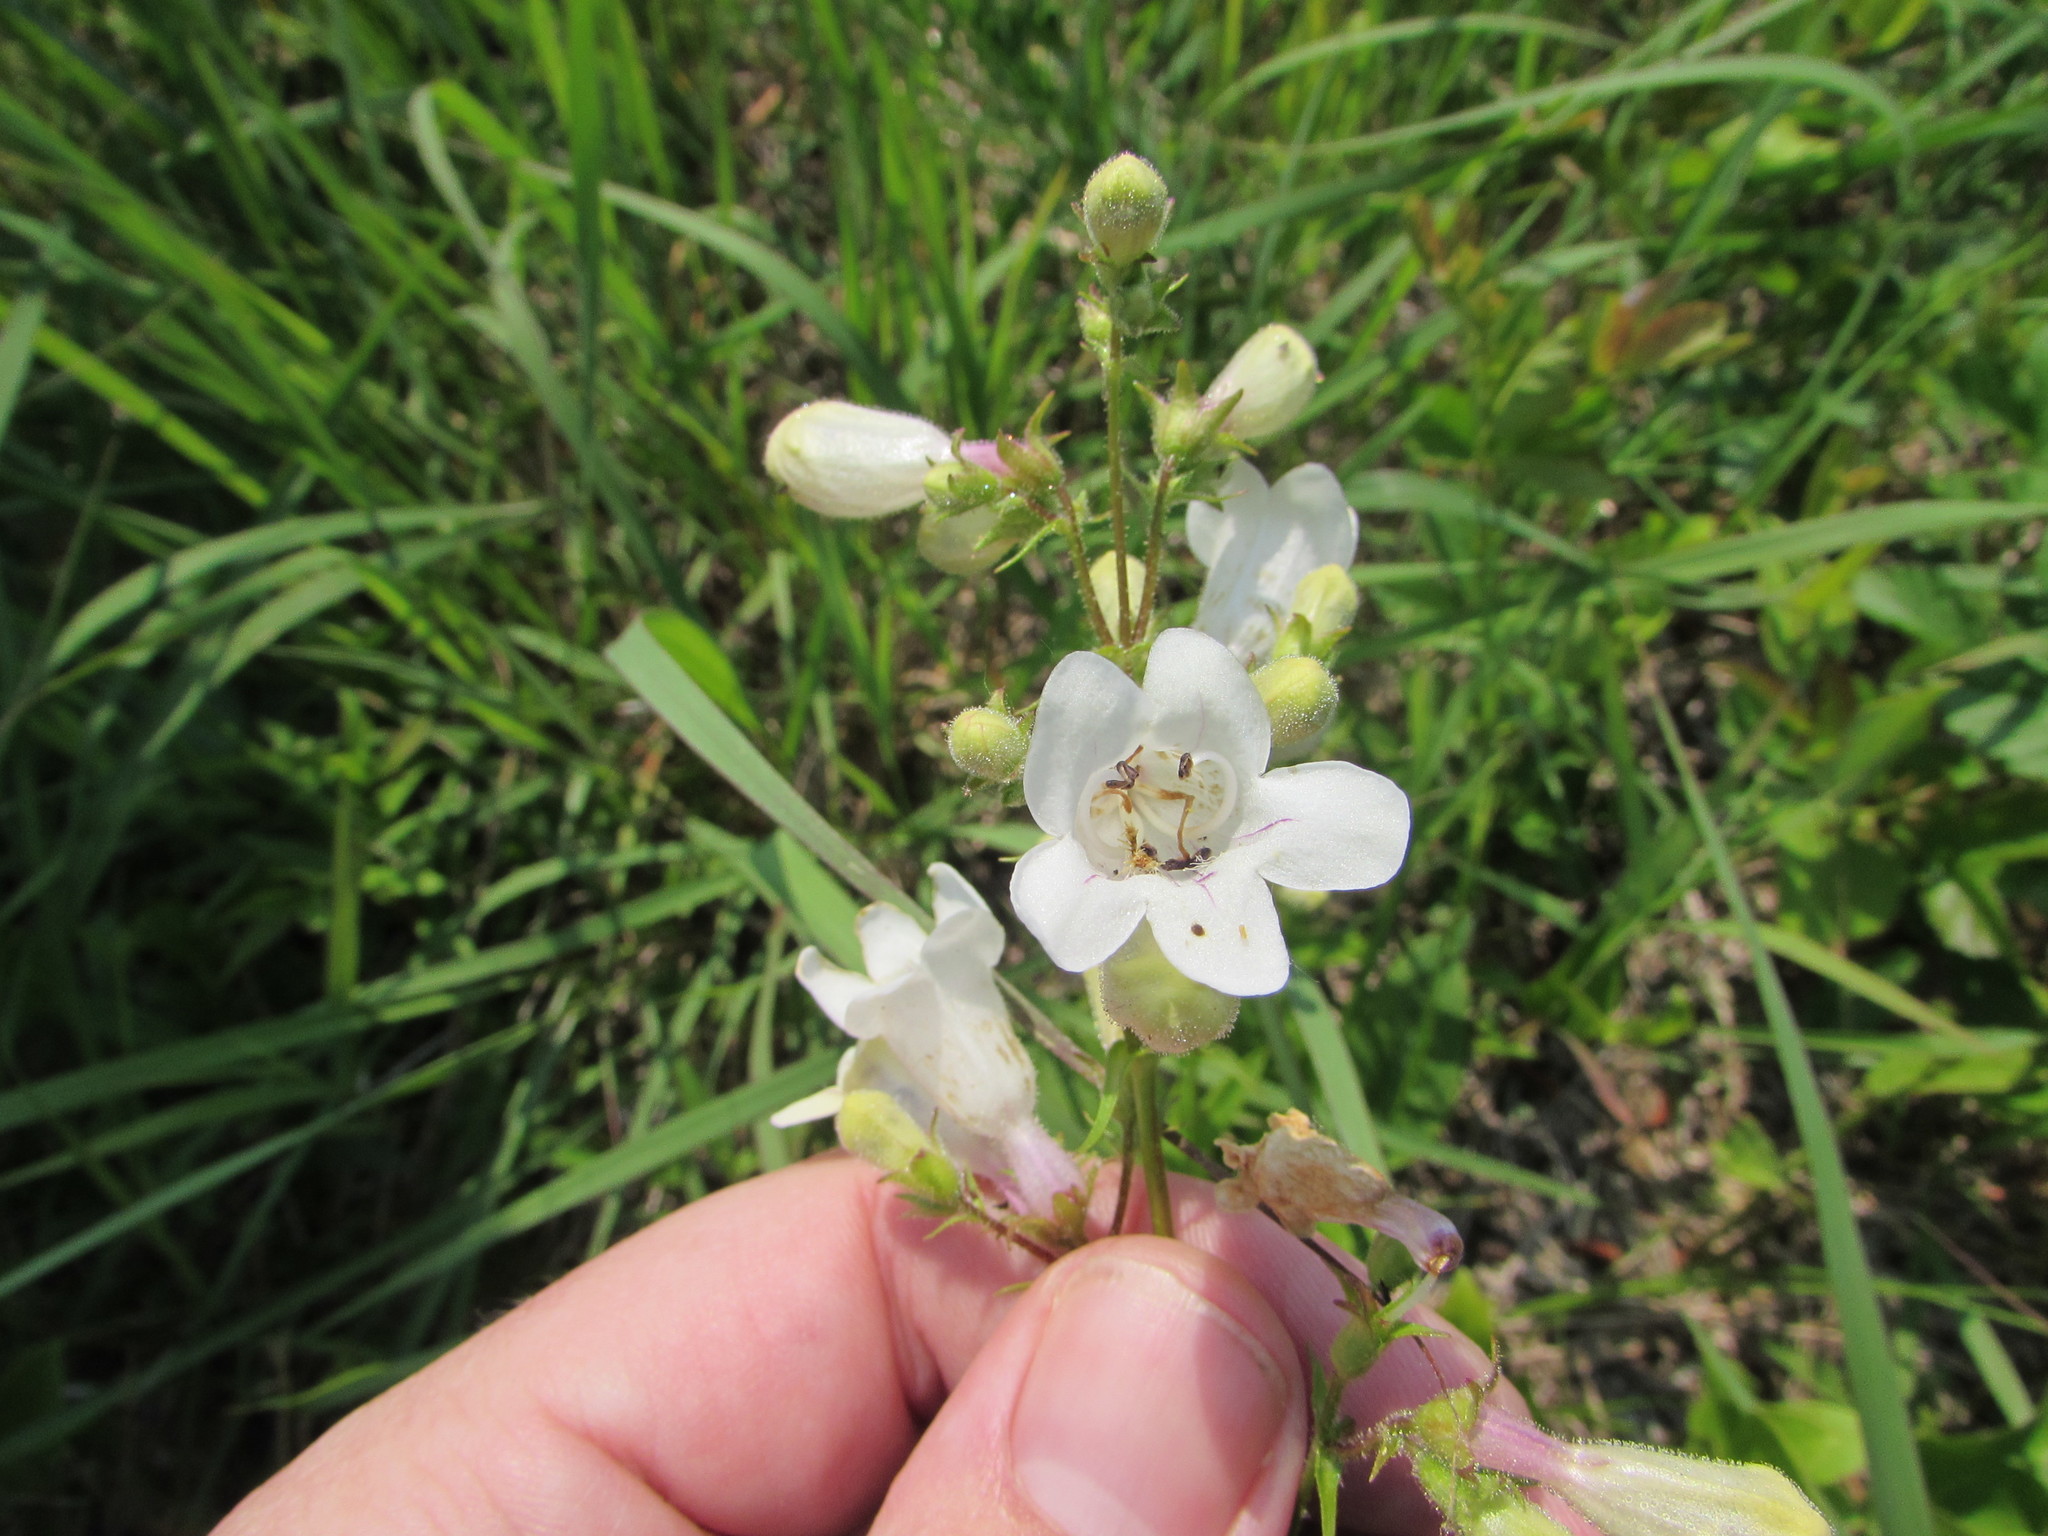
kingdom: Plantae
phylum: Tracheophyta
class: Magnoliopsida
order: Lamiales
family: Plantaginaceae
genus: Penstemon
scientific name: Penstemon digitalis
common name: Foxglove beardtongue
